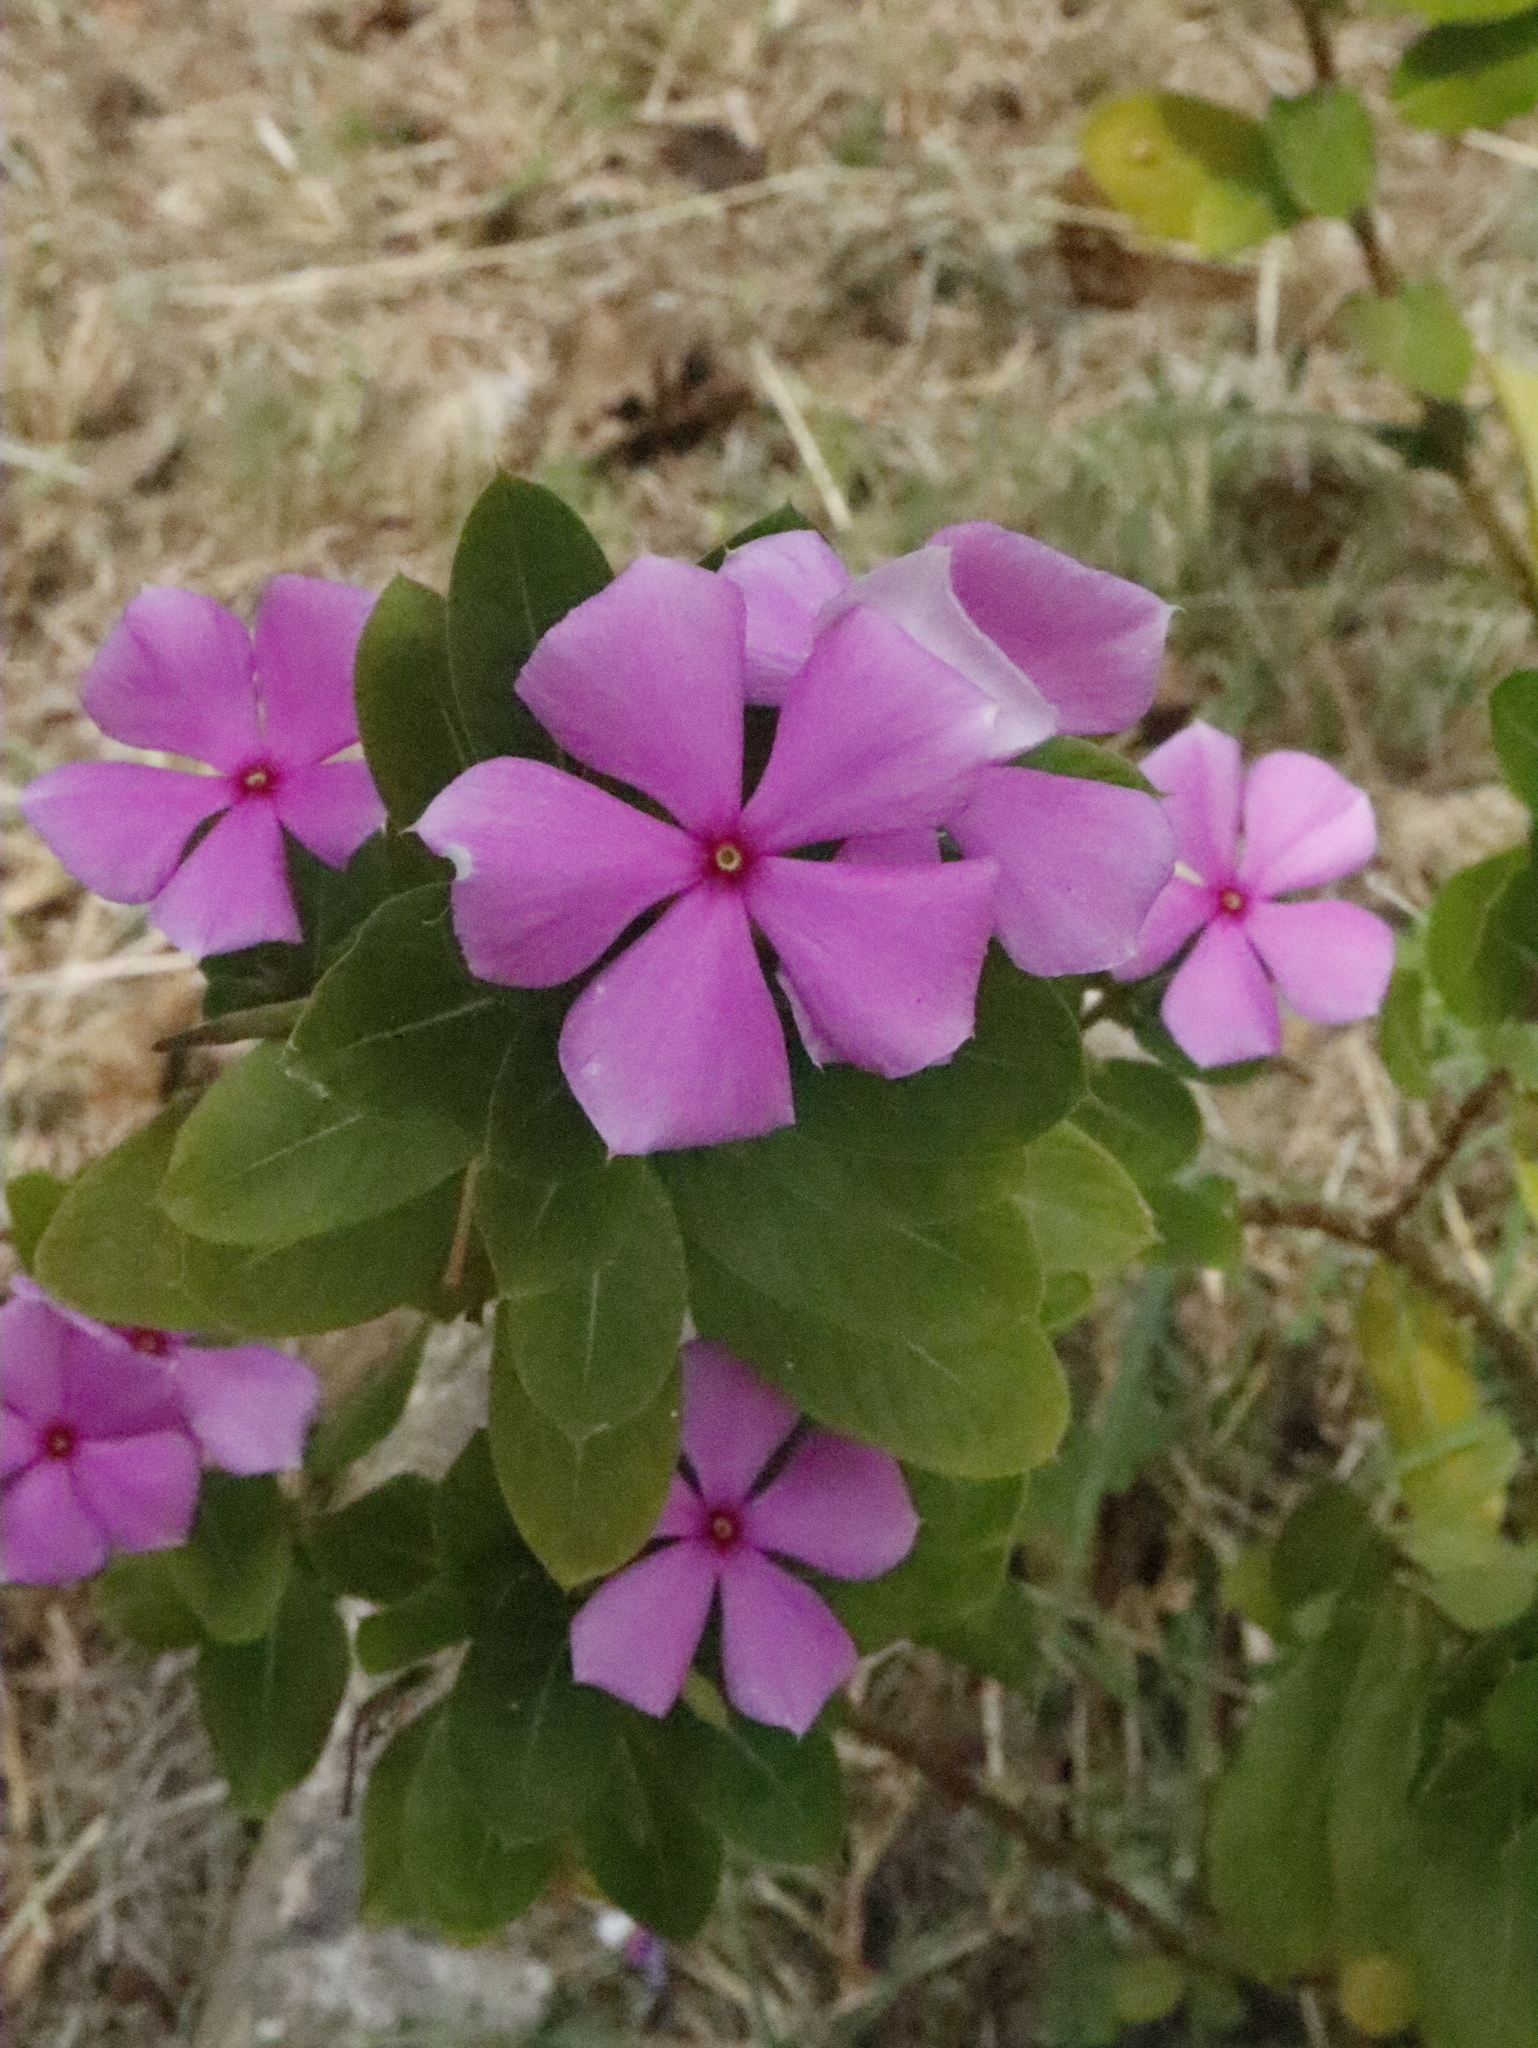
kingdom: Plantae
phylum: Tracheophyta
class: Magnoliopsida
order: Gentianales
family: Apocynaceae
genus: Catharanthus
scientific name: Catharanthus roseus
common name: Madagascar periwinkle
